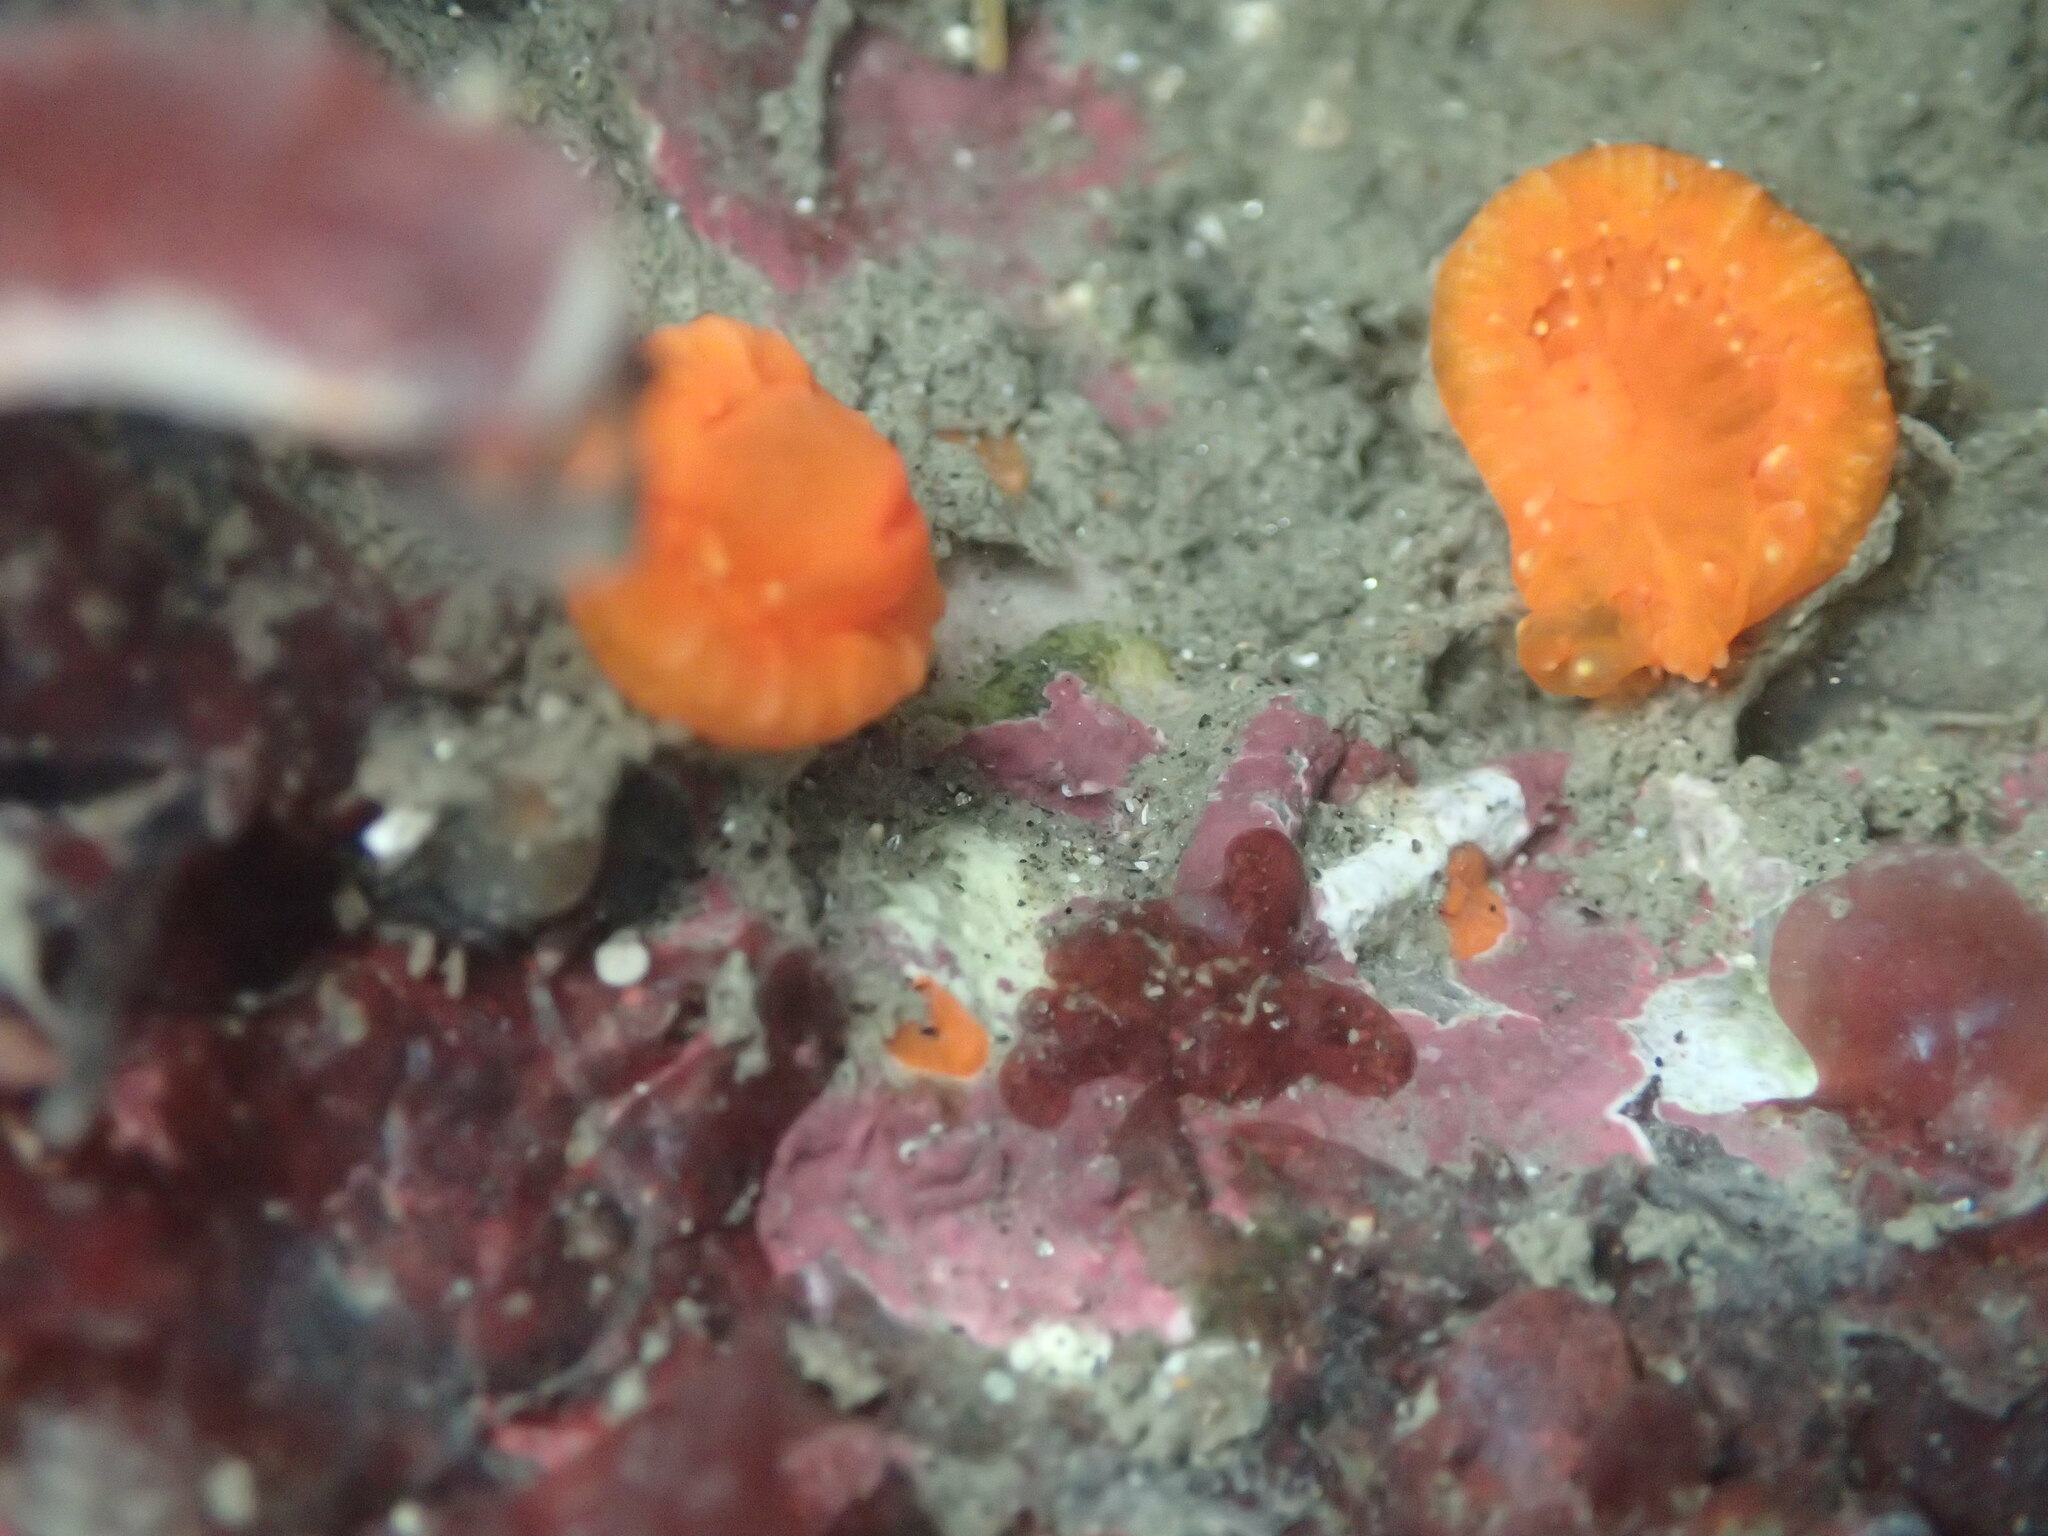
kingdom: Animalia
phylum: Cnidaria
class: Anthozoa
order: Scleractinia
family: Dendrophylliidae
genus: Balanophyllia
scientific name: Balanophyllia elegans
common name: Orange stony coral
